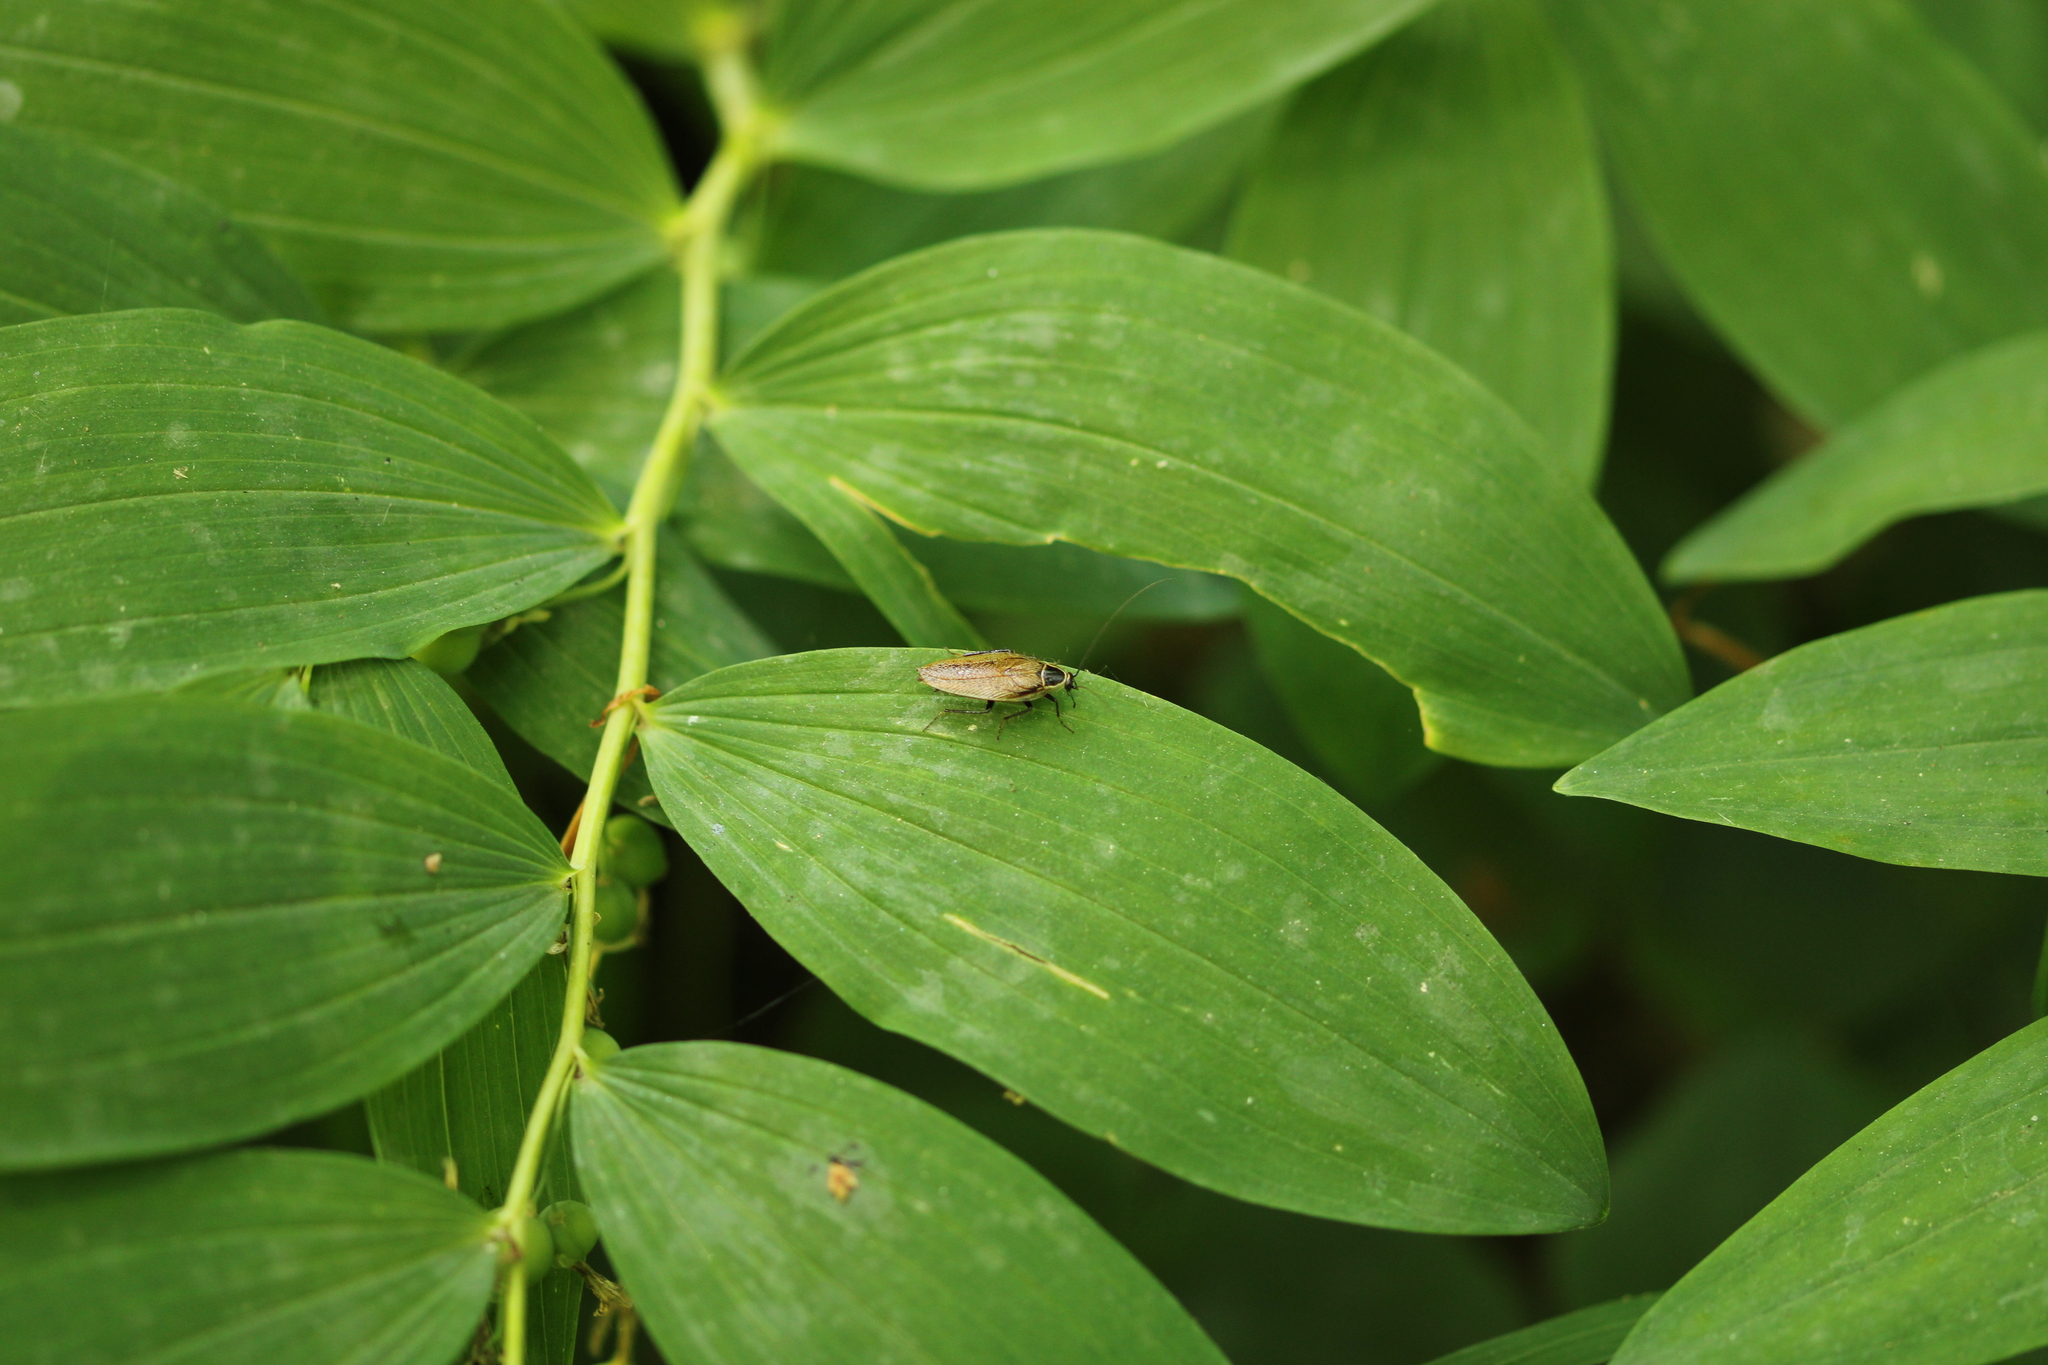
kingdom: Animalia
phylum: Arthropoda
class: Insecta
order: Blattodea
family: Ectobiidae
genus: Ectobius
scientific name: Ectobius sylvestris
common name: Forest cockroach
